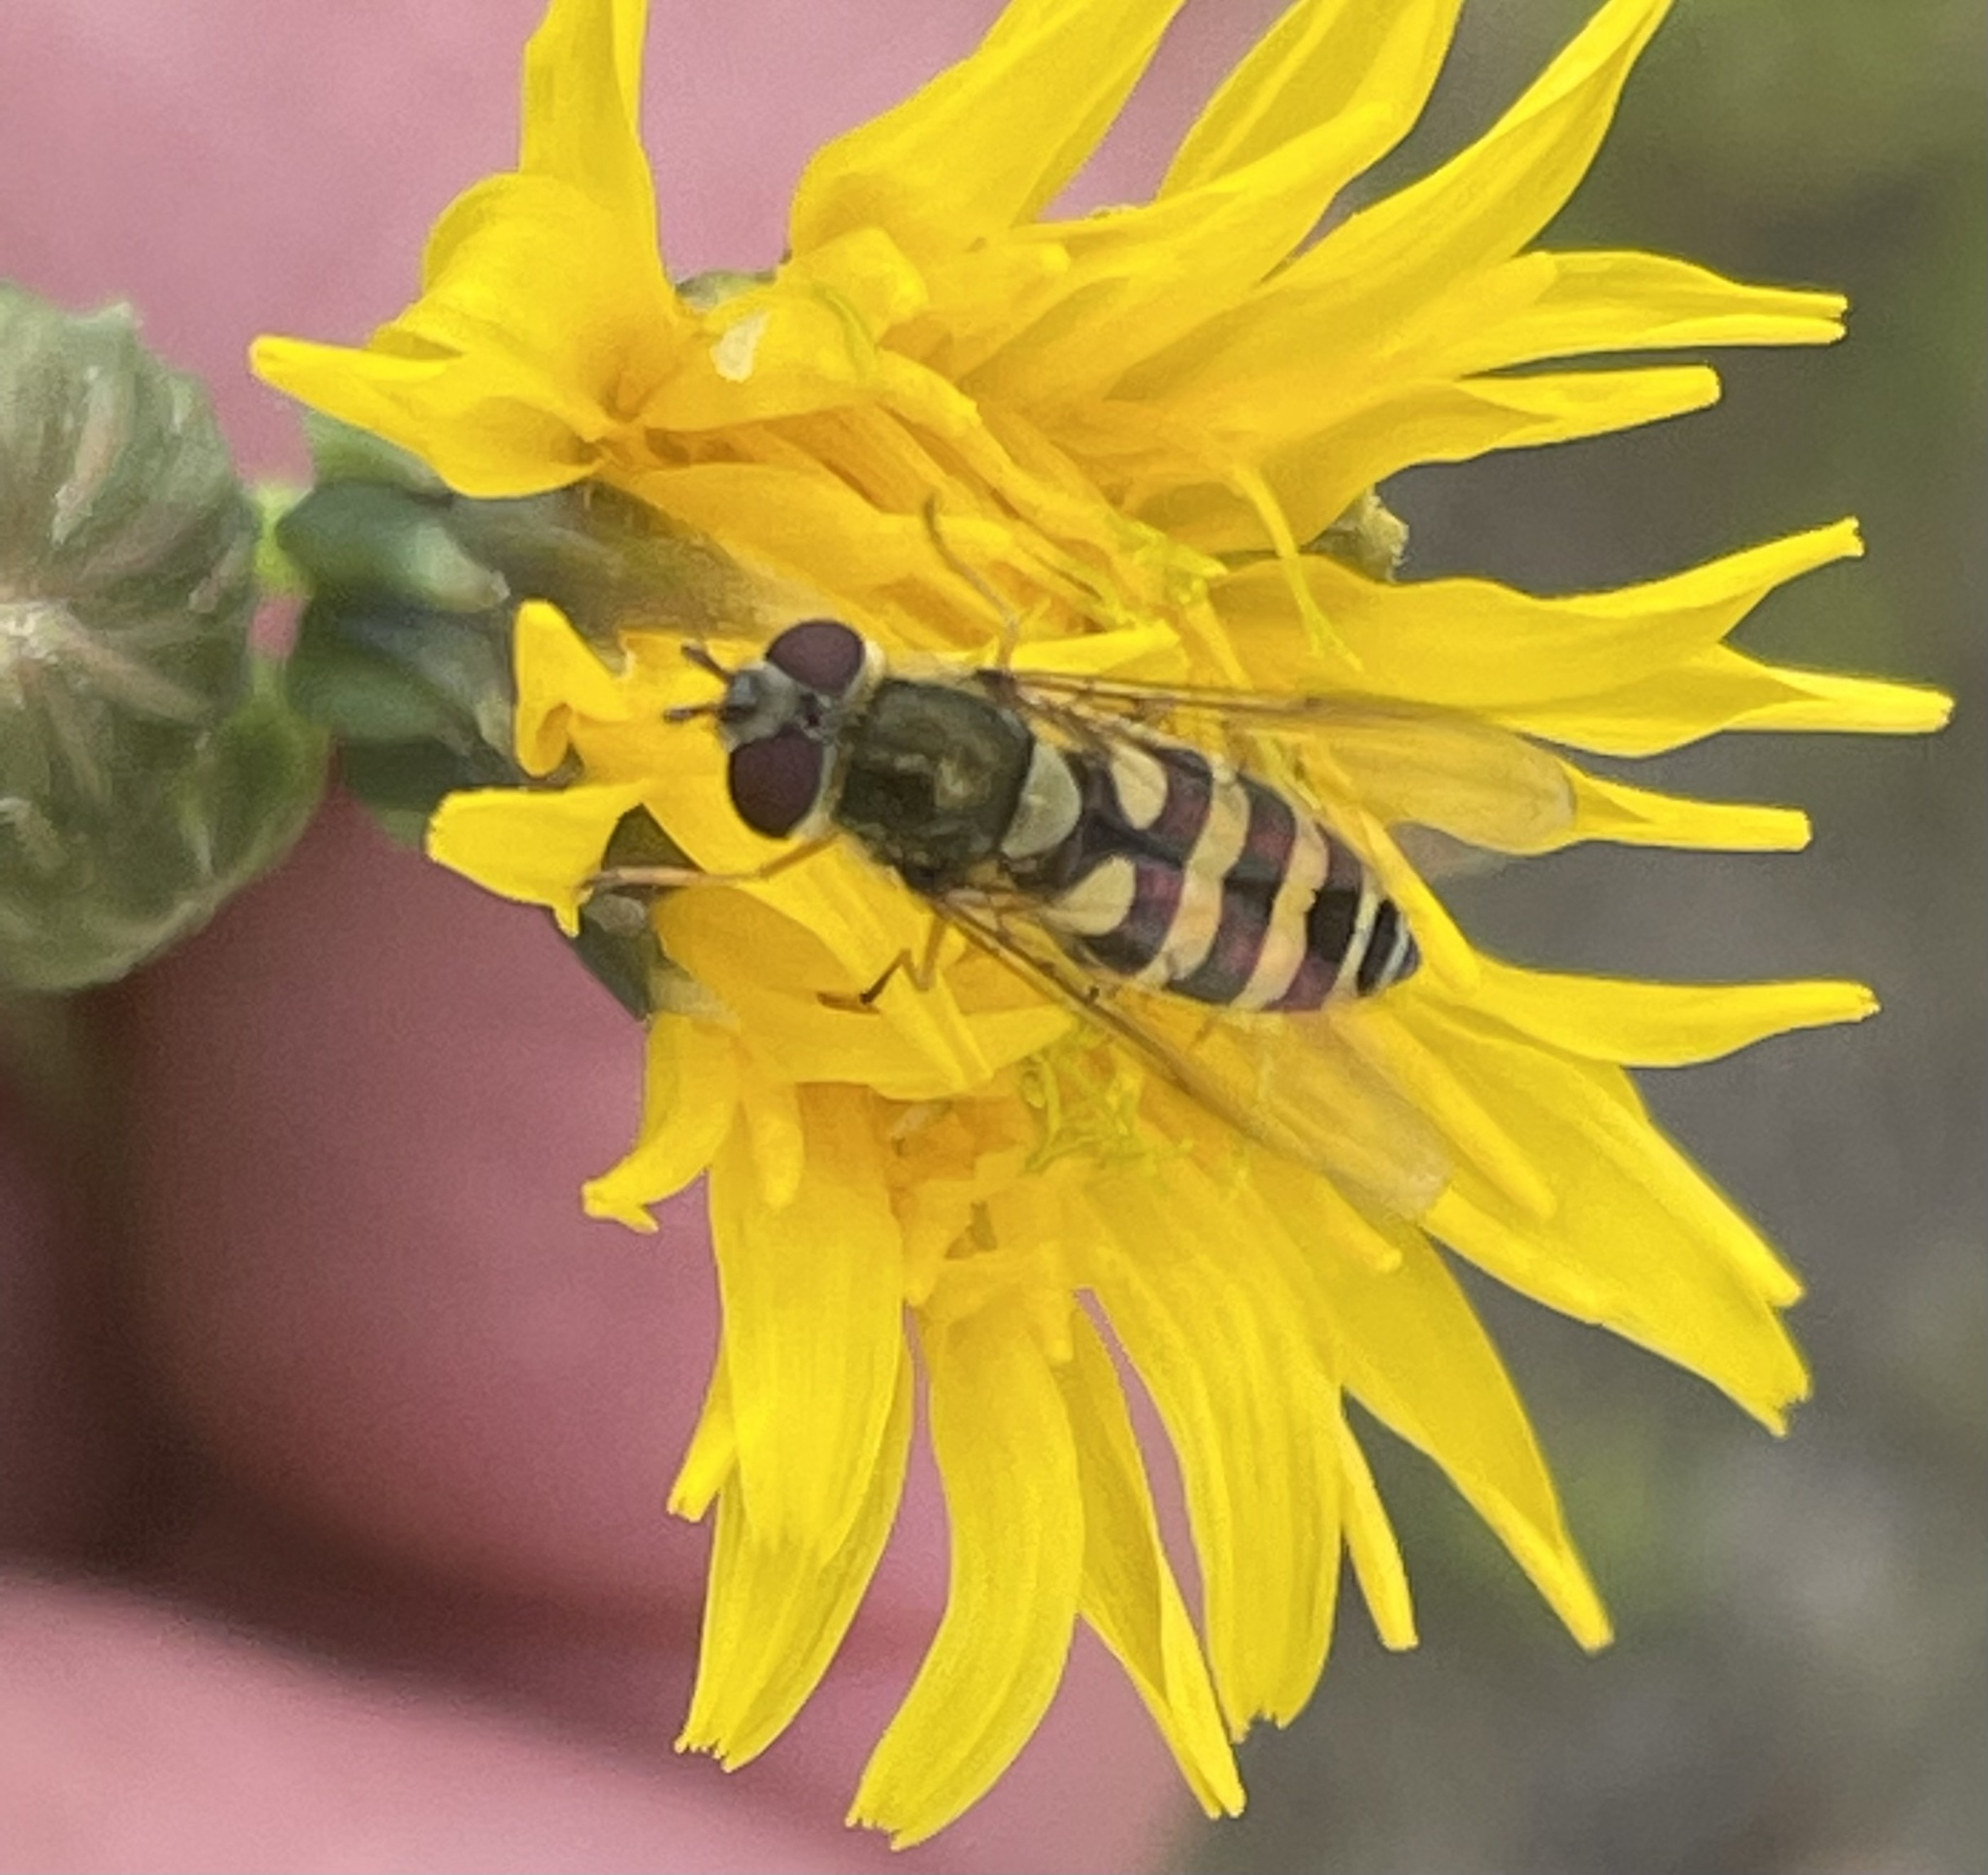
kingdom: Animalia
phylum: Arthropoda
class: Insecta
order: Diptera
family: Syrphidae
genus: Syrphus
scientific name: Syrphus
